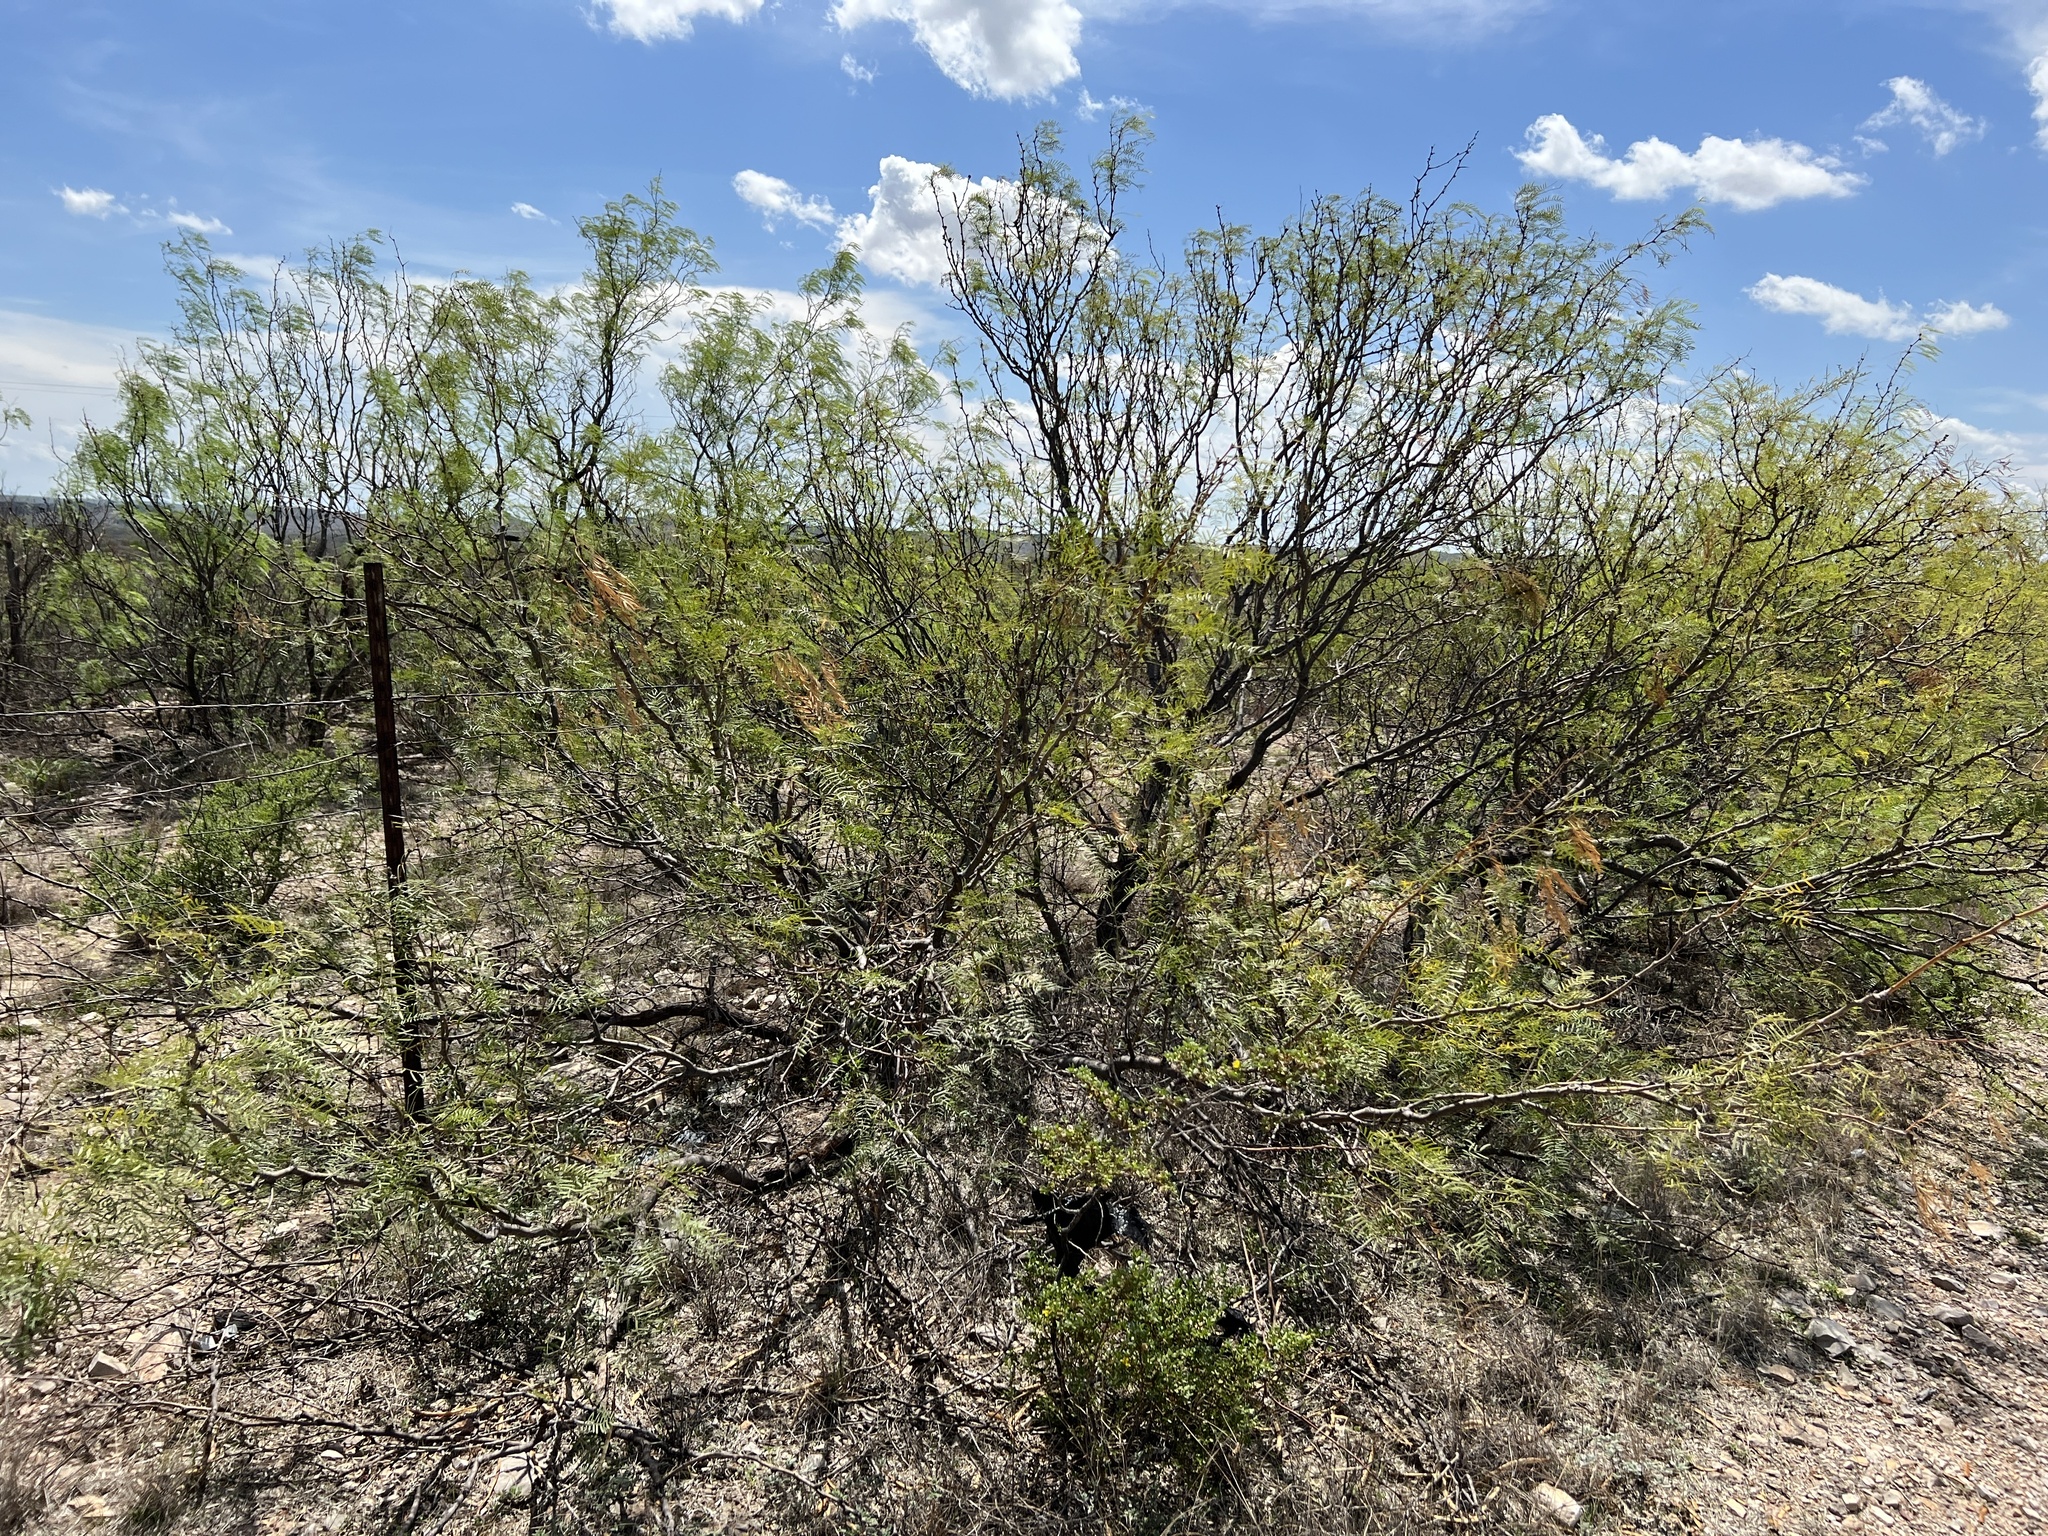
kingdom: Plantae
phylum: Tracheophyta
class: Magnoliopsida
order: Fabales
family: Fabaceae
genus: Prosopis
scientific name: Prosopis glandulosa
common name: Honey mesquite
